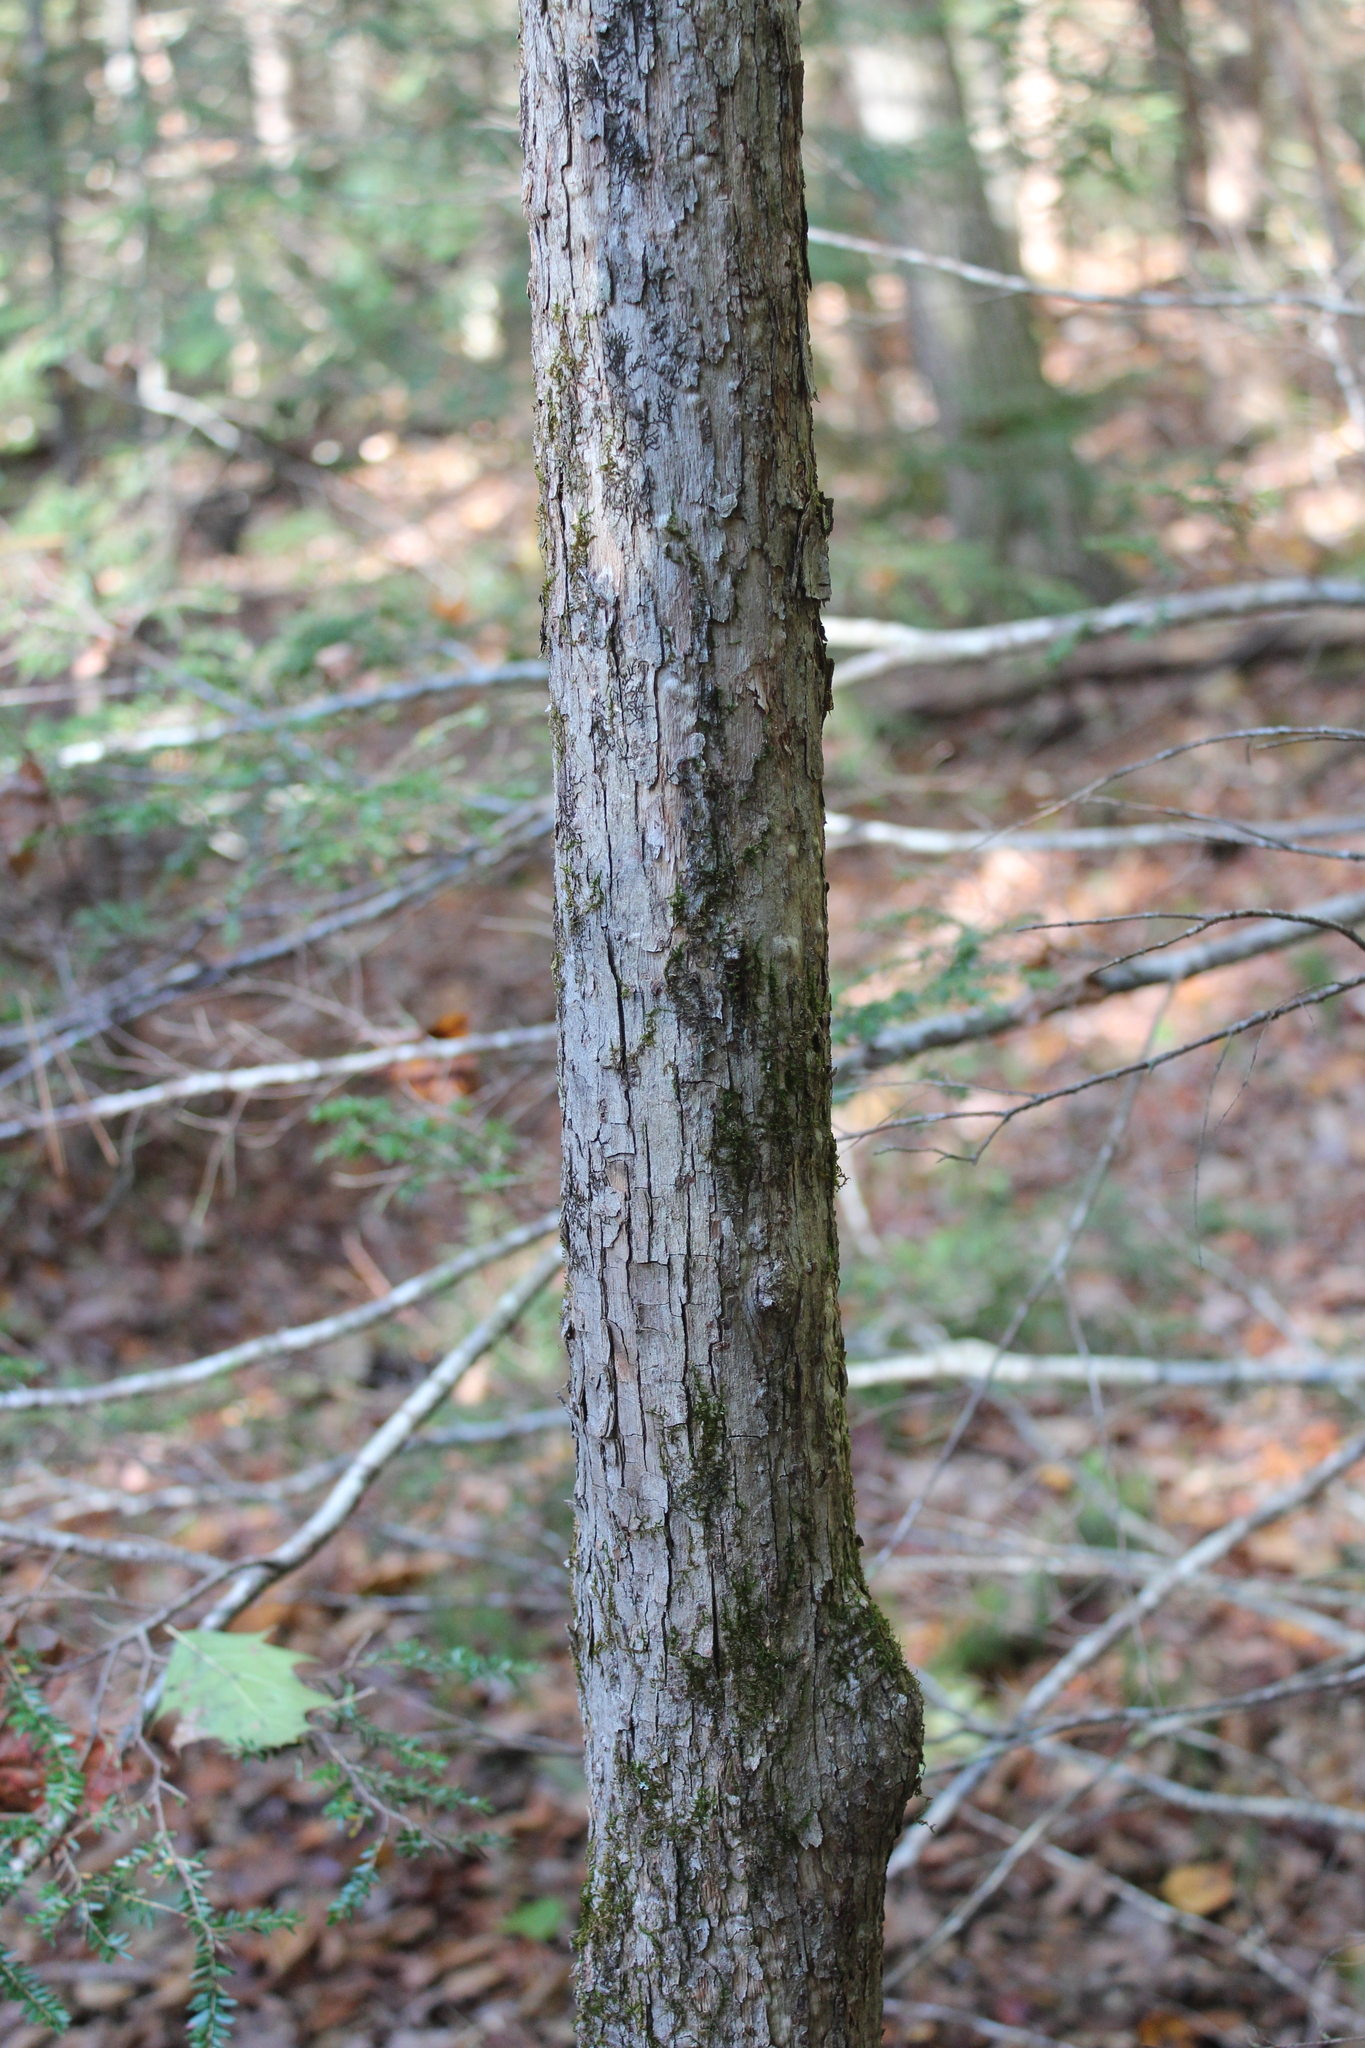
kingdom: Plantae
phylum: Tracheophyta
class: Magnoliopsida
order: Fagales
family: Betulaceae
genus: Ostrya
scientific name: Ostrya virginiana
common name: Ironwood
